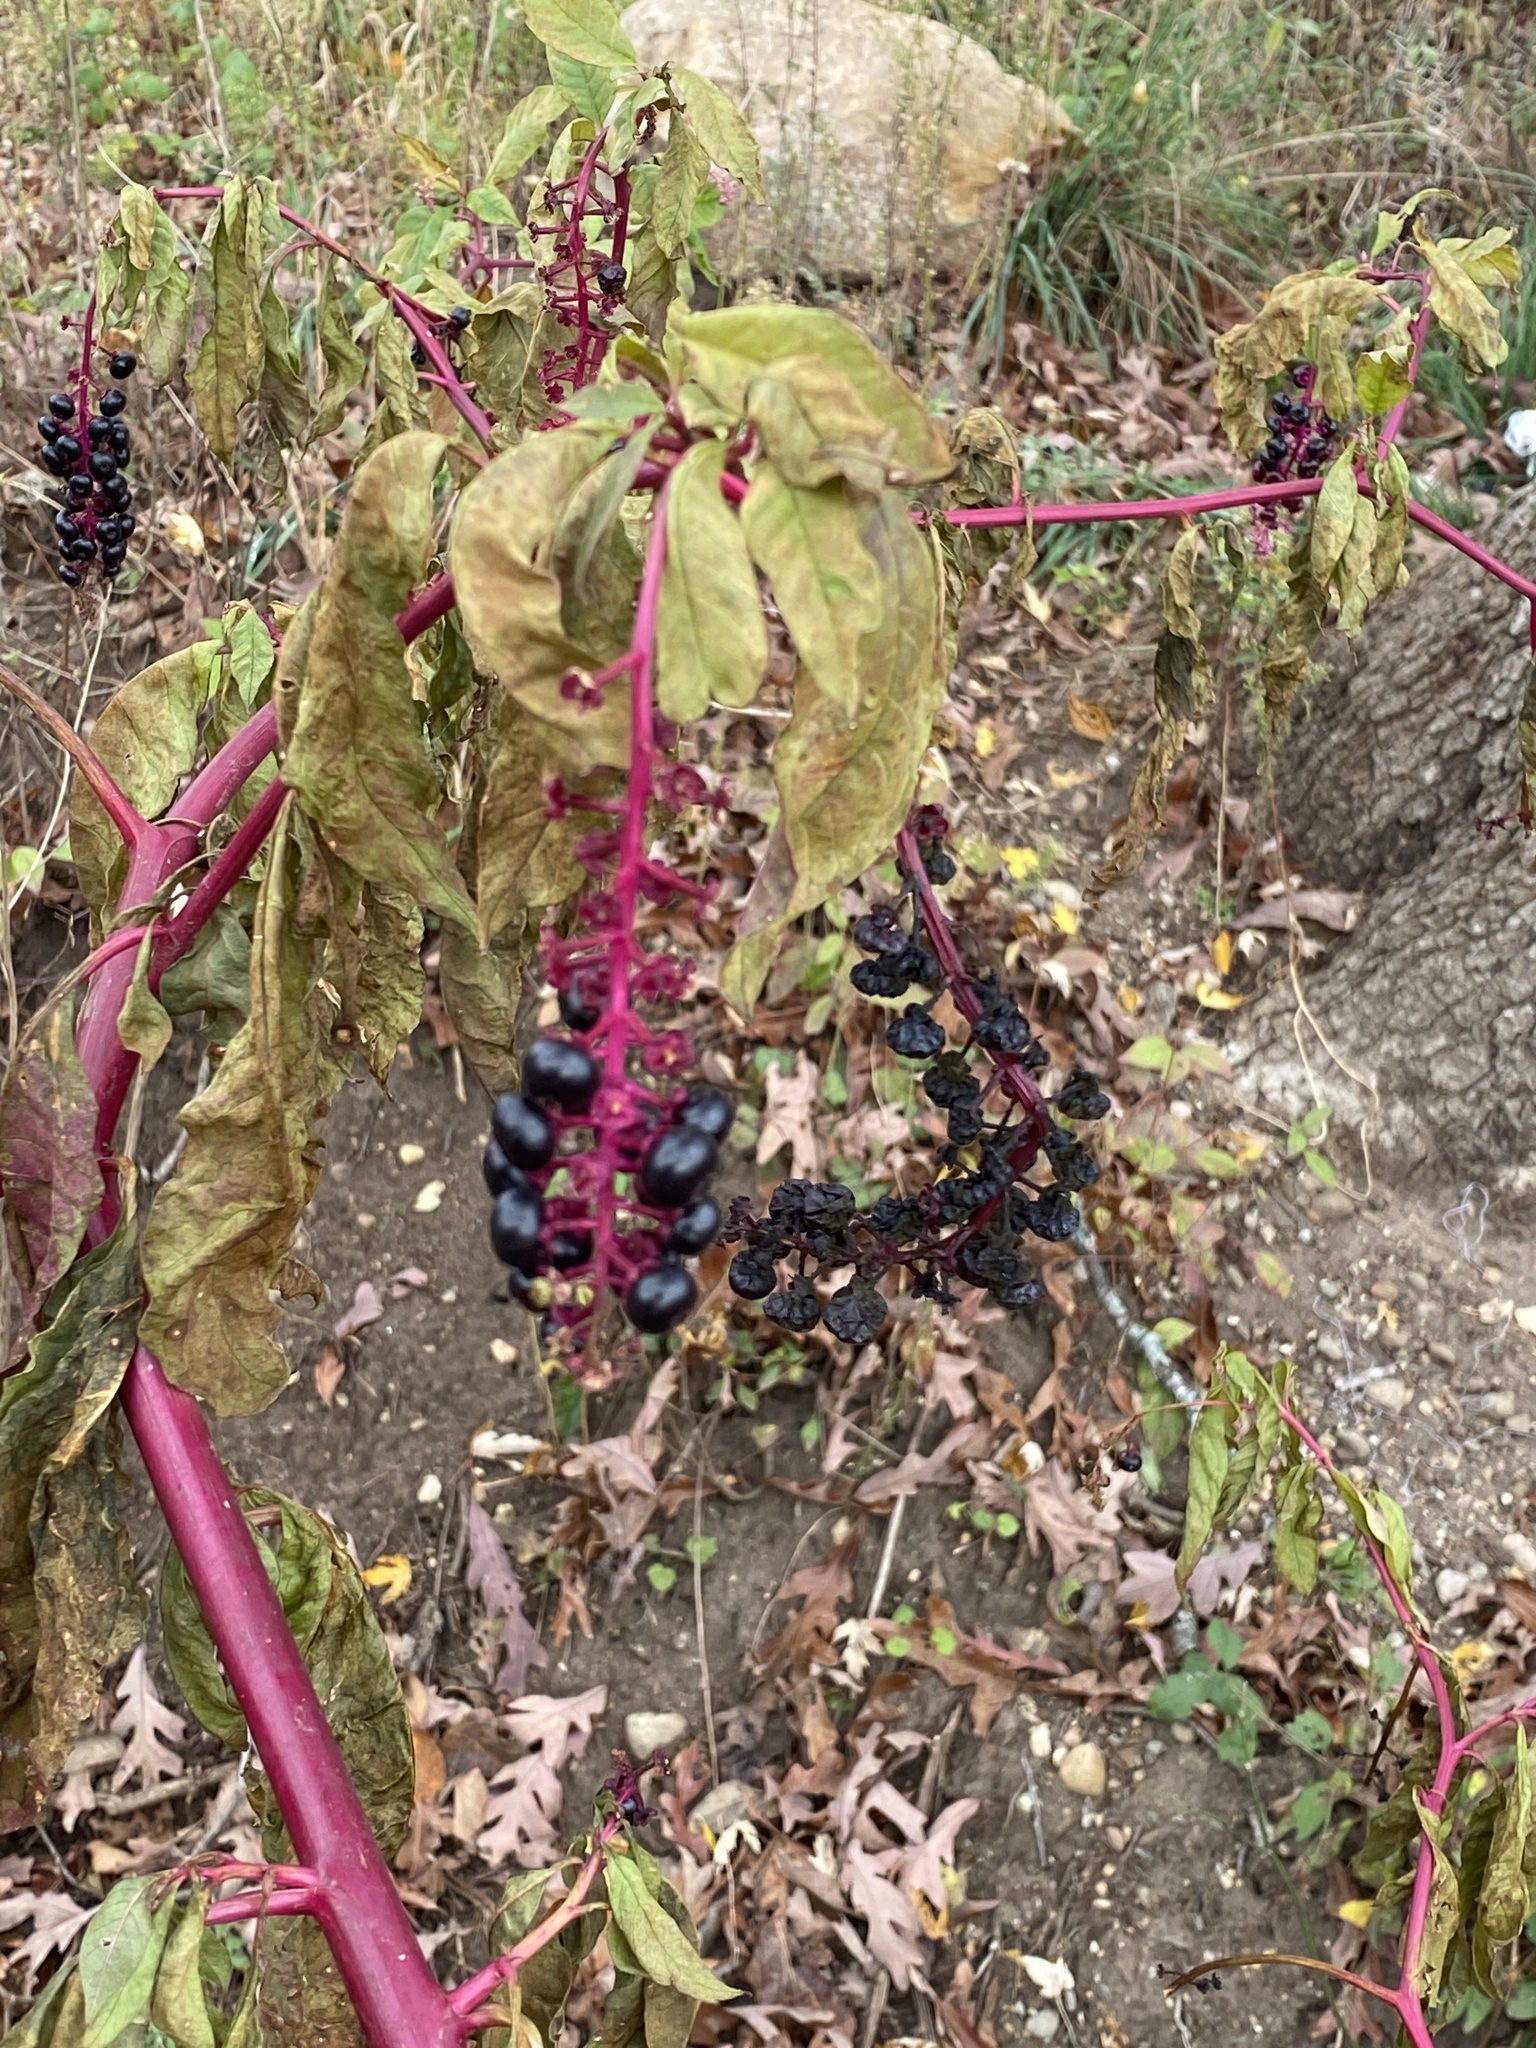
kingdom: Plantae
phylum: Tracheophyta
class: Magnoliopsida
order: Caryophyllales
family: Phytolaccaceae
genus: Phytolacca
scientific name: Phytolacca americana
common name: American pokeweed
